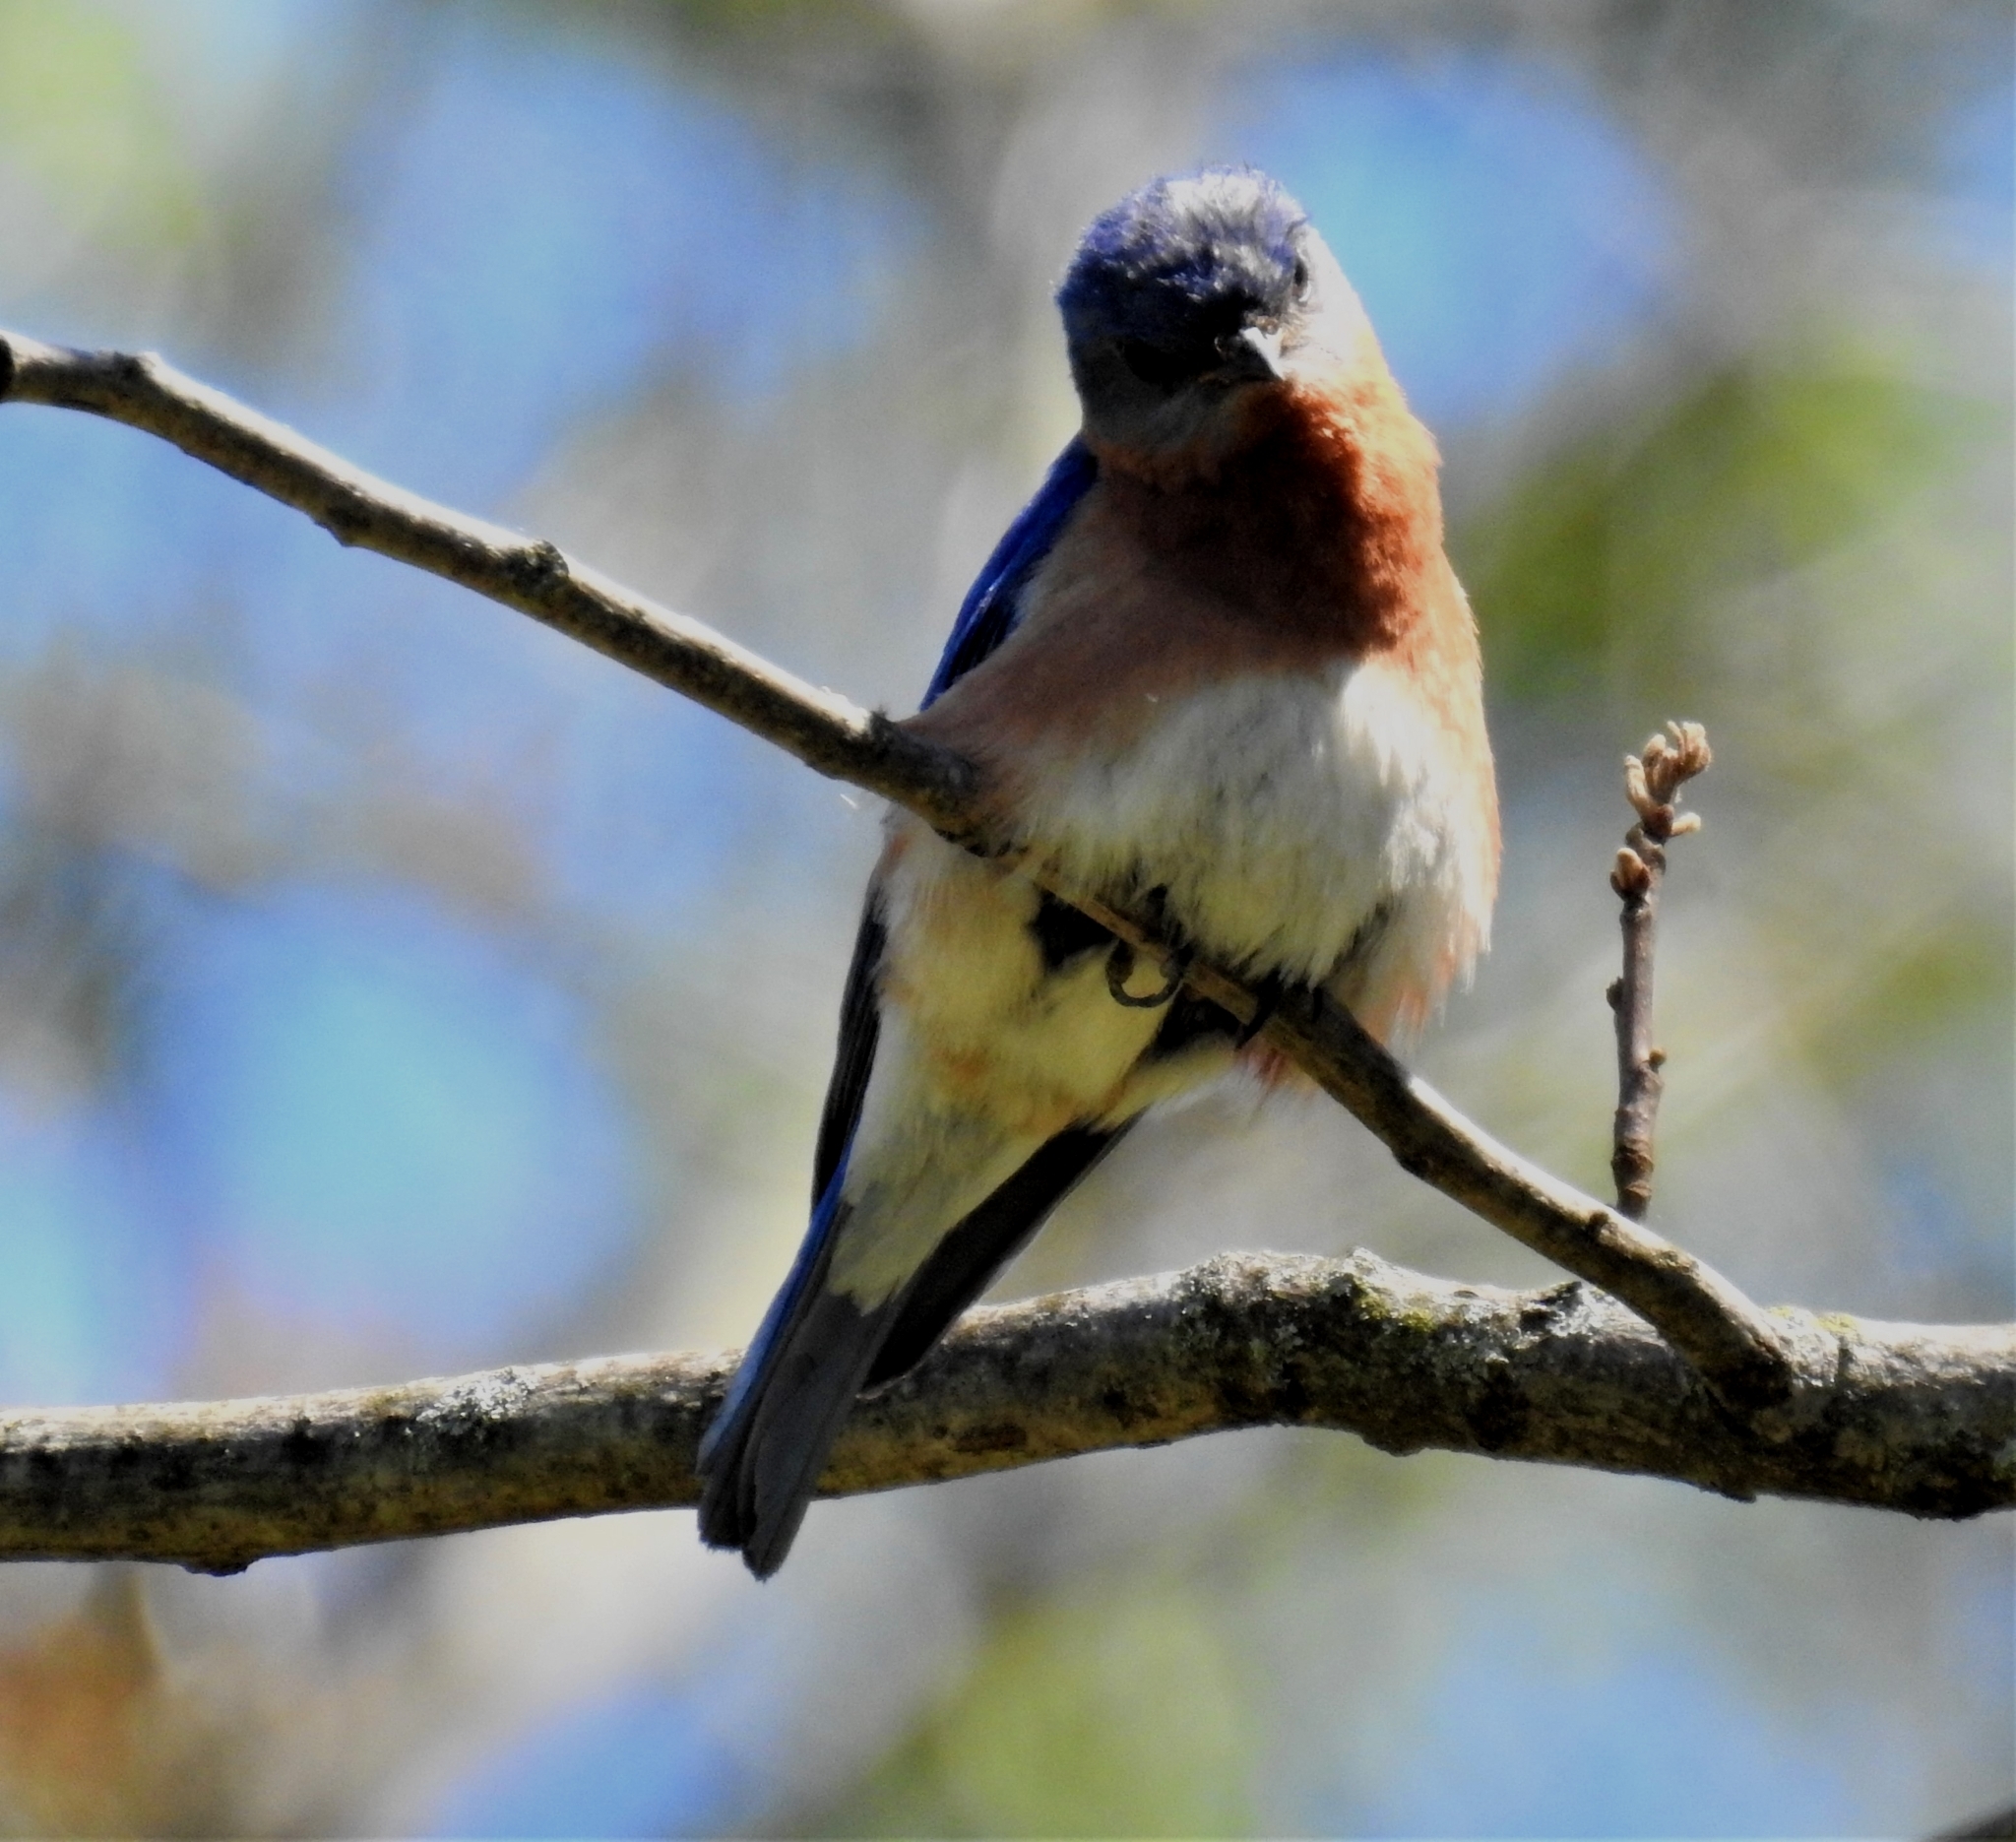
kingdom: Animalia
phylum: Chordata
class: Aves
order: Passeriformes
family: Turdidae
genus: Sialia
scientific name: Sialia sialis
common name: Eastern bluebird
